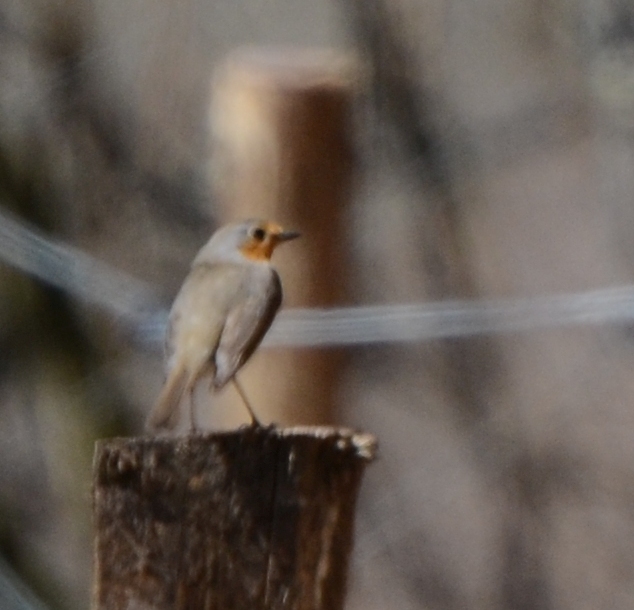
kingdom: Animalia
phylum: Chordata
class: Aves
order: Passeriformes
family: Muscicapidae
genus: Erithacus
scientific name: Erithacus rubecula
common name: European robin
